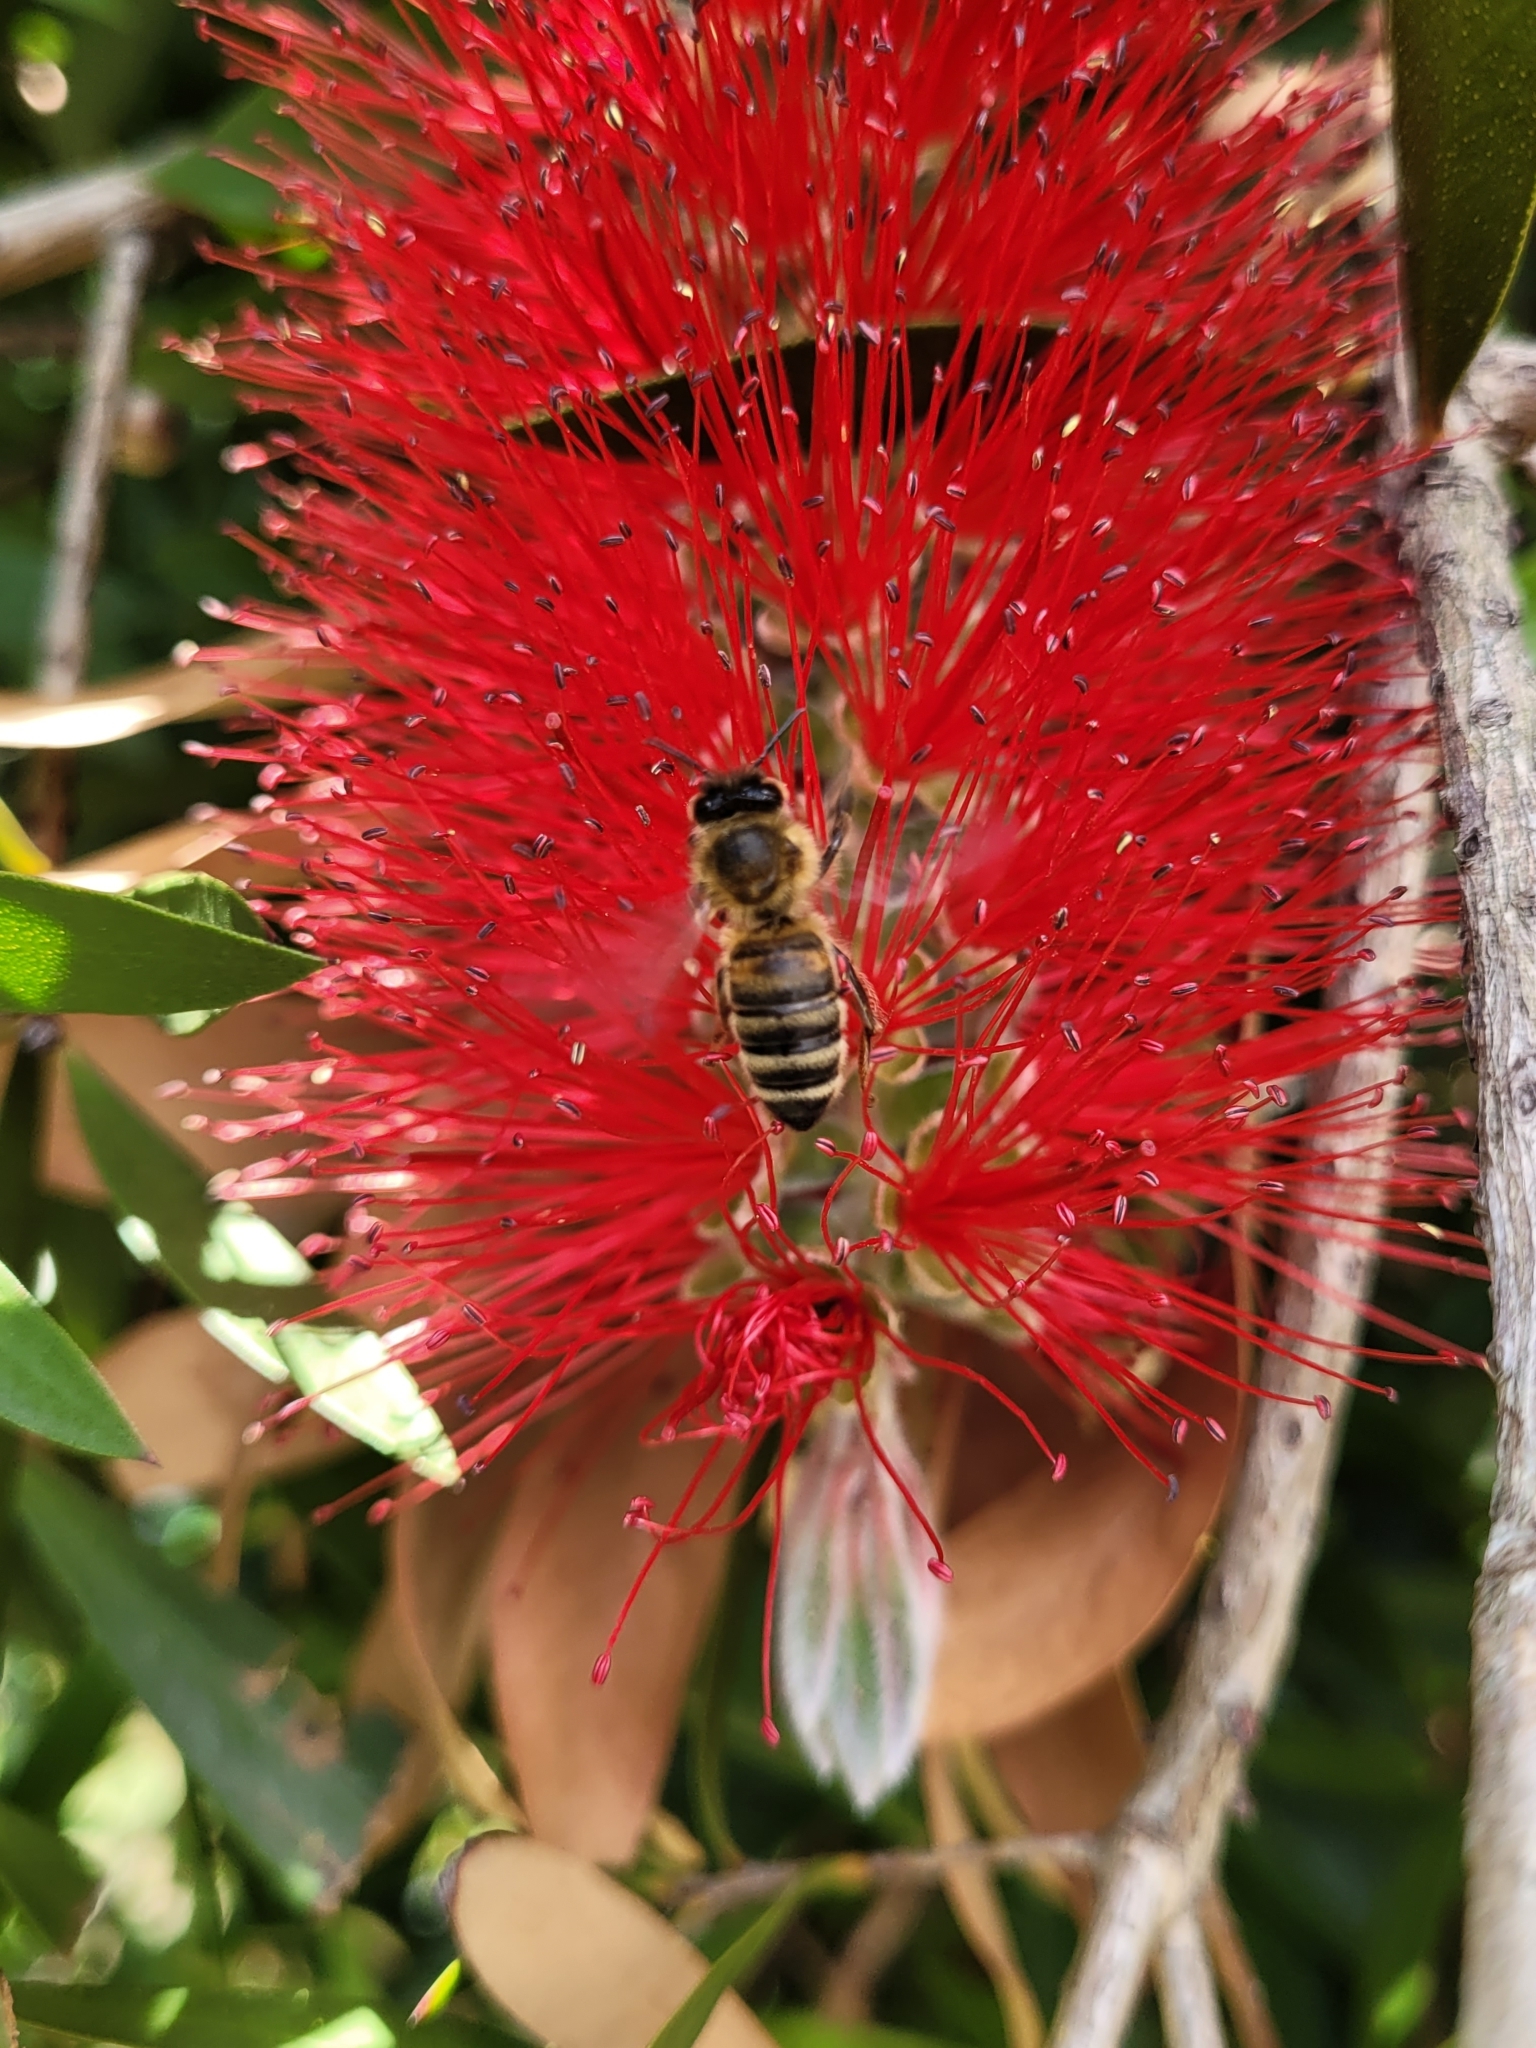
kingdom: Animalia
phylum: Arthropoda
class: Insecta
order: Hymenoptera
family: Apidae
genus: Apis
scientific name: Apis mellifera
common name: Honey bee
